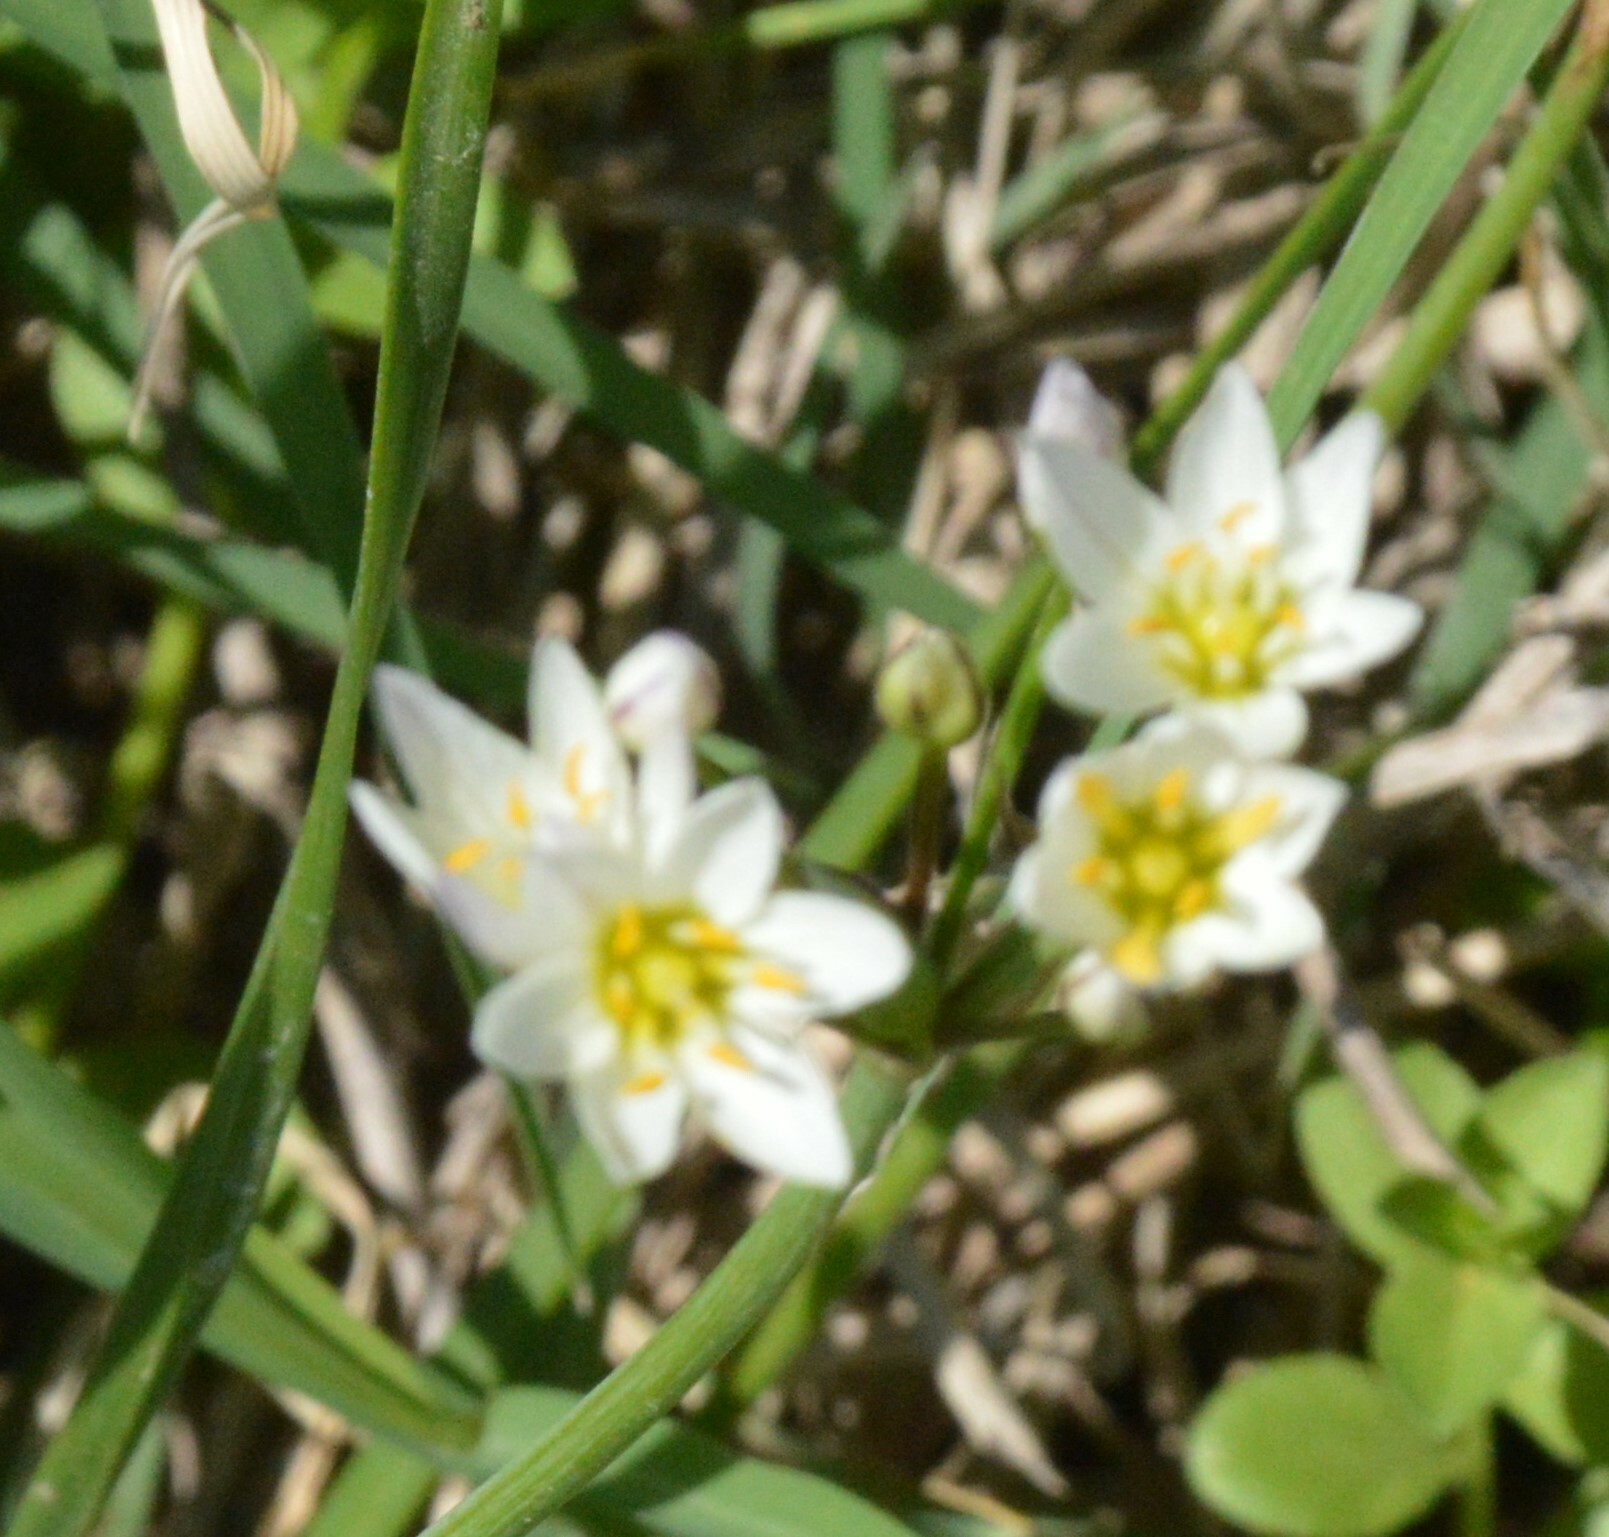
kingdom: Plantae
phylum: Tracheophyta
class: Liliopsida
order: Asparagales
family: Amaryllidaceae
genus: Nothoscordum
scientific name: Nothoscordum bivalve
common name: Crow-poison
